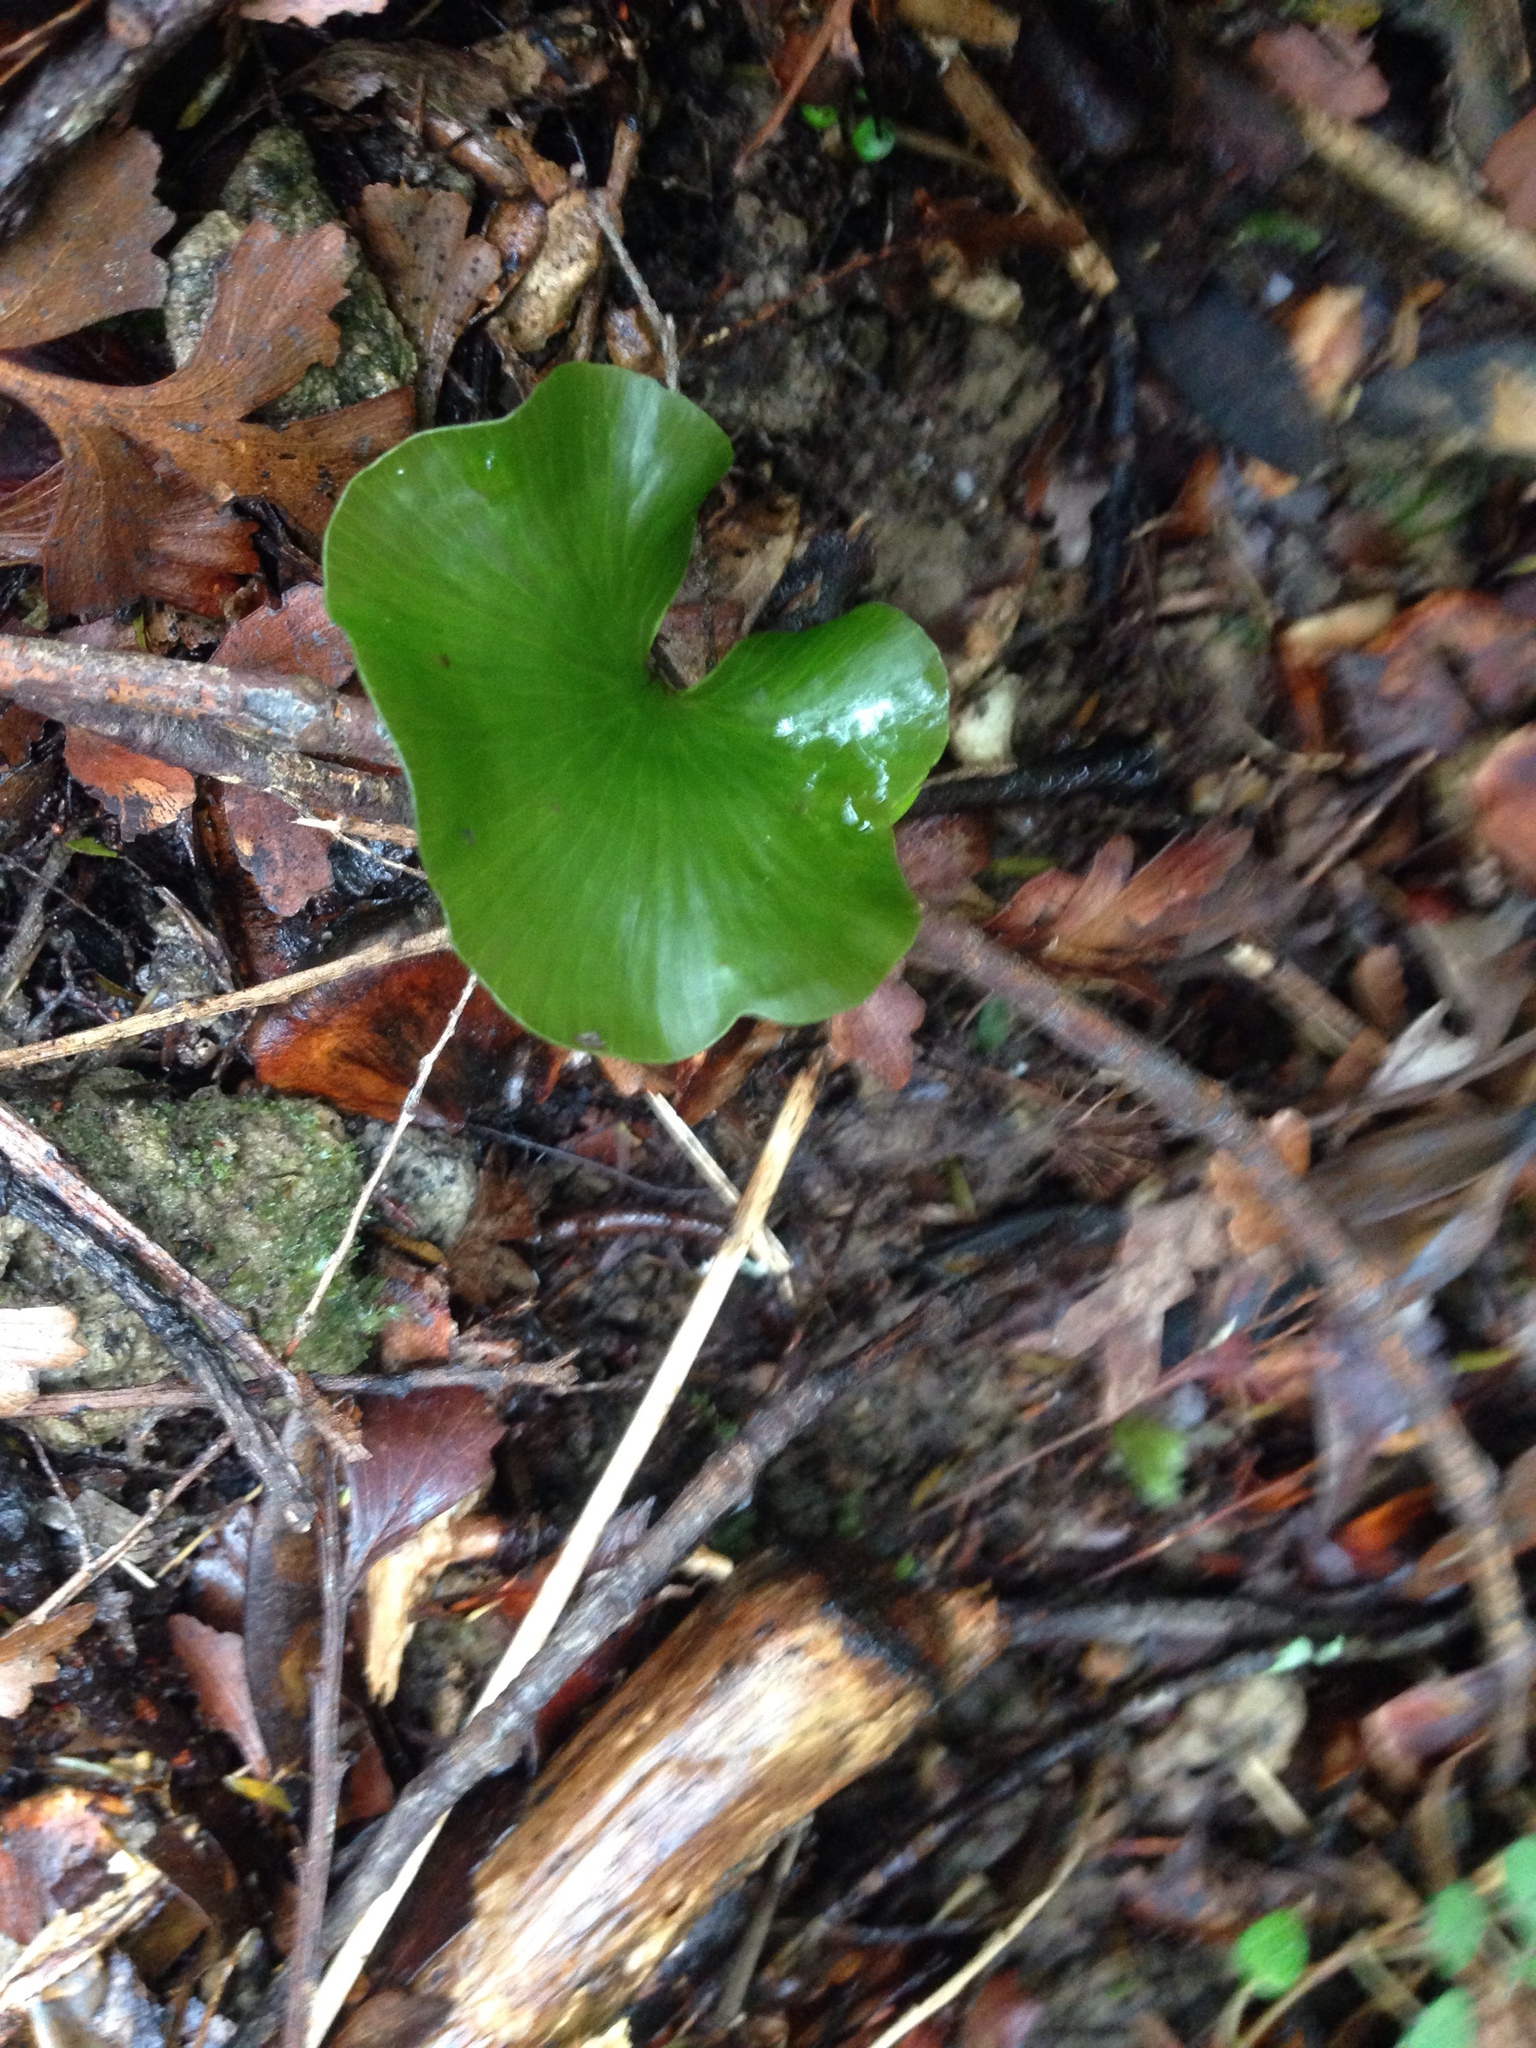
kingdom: Plantae
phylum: Tracheophyta
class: Polypodiopsida
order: Hymenophyllales
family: Hymenophyllaceae
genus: Hymenophyllum
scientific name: Hymenophyllum nephrophyllum
